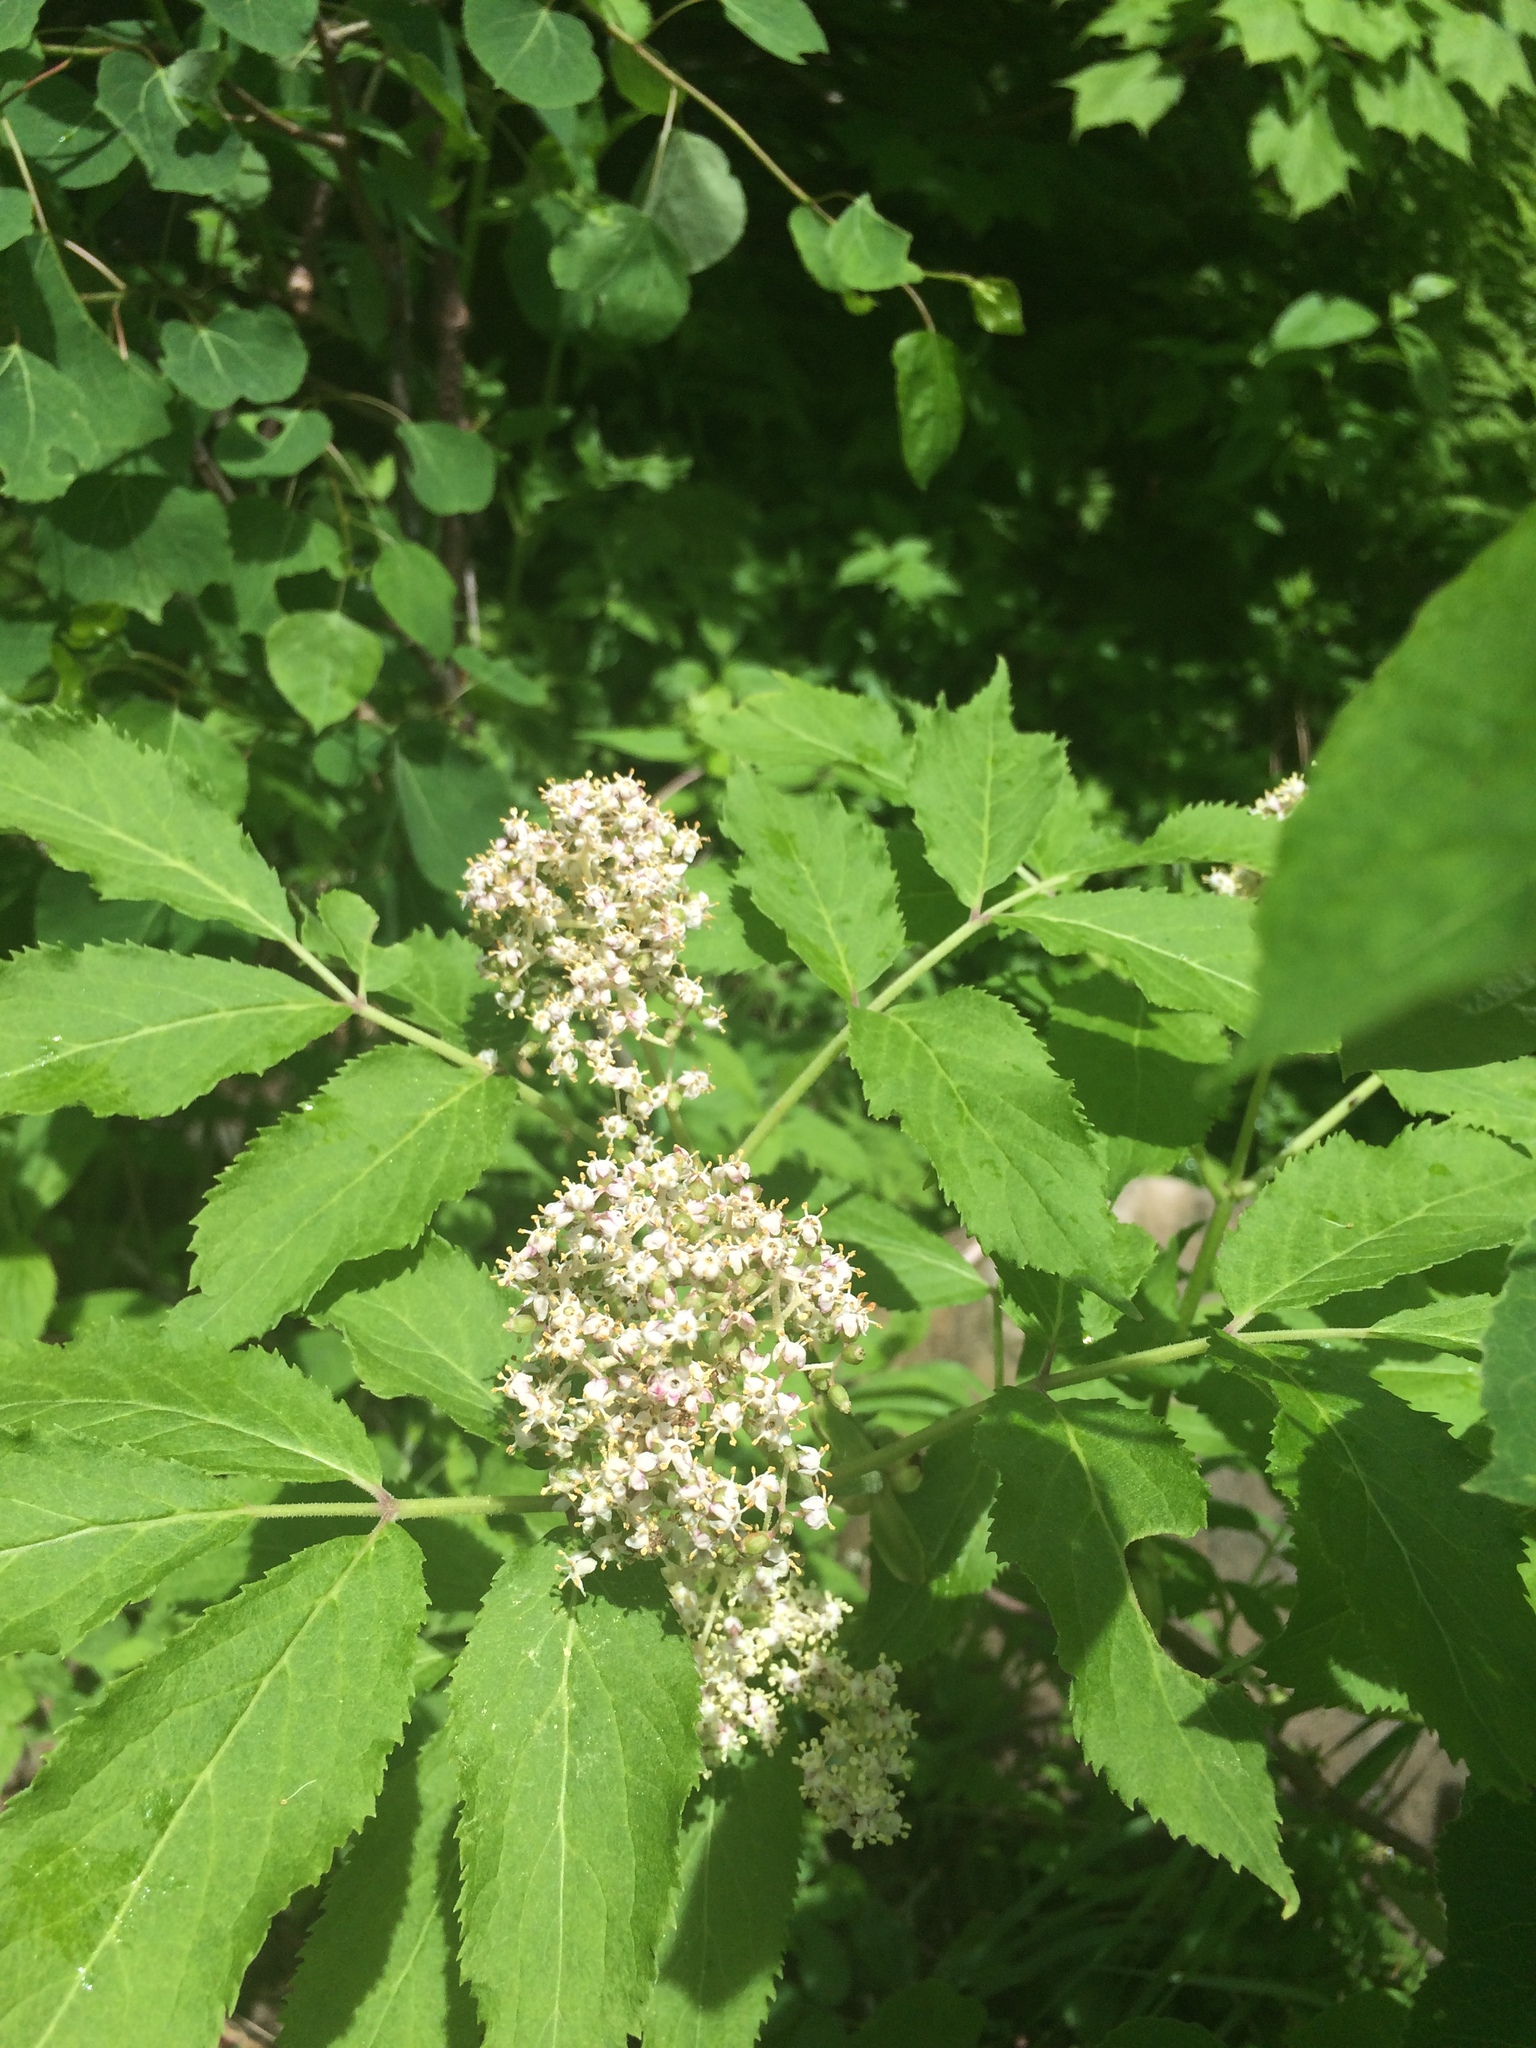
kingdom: Plantae
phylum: Tracheophyta
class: Magnoliopsida
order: Dipsacales
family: Viburnaceae
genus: Sambucus
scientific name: Sambucus racemosa
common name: Red-berried elder
